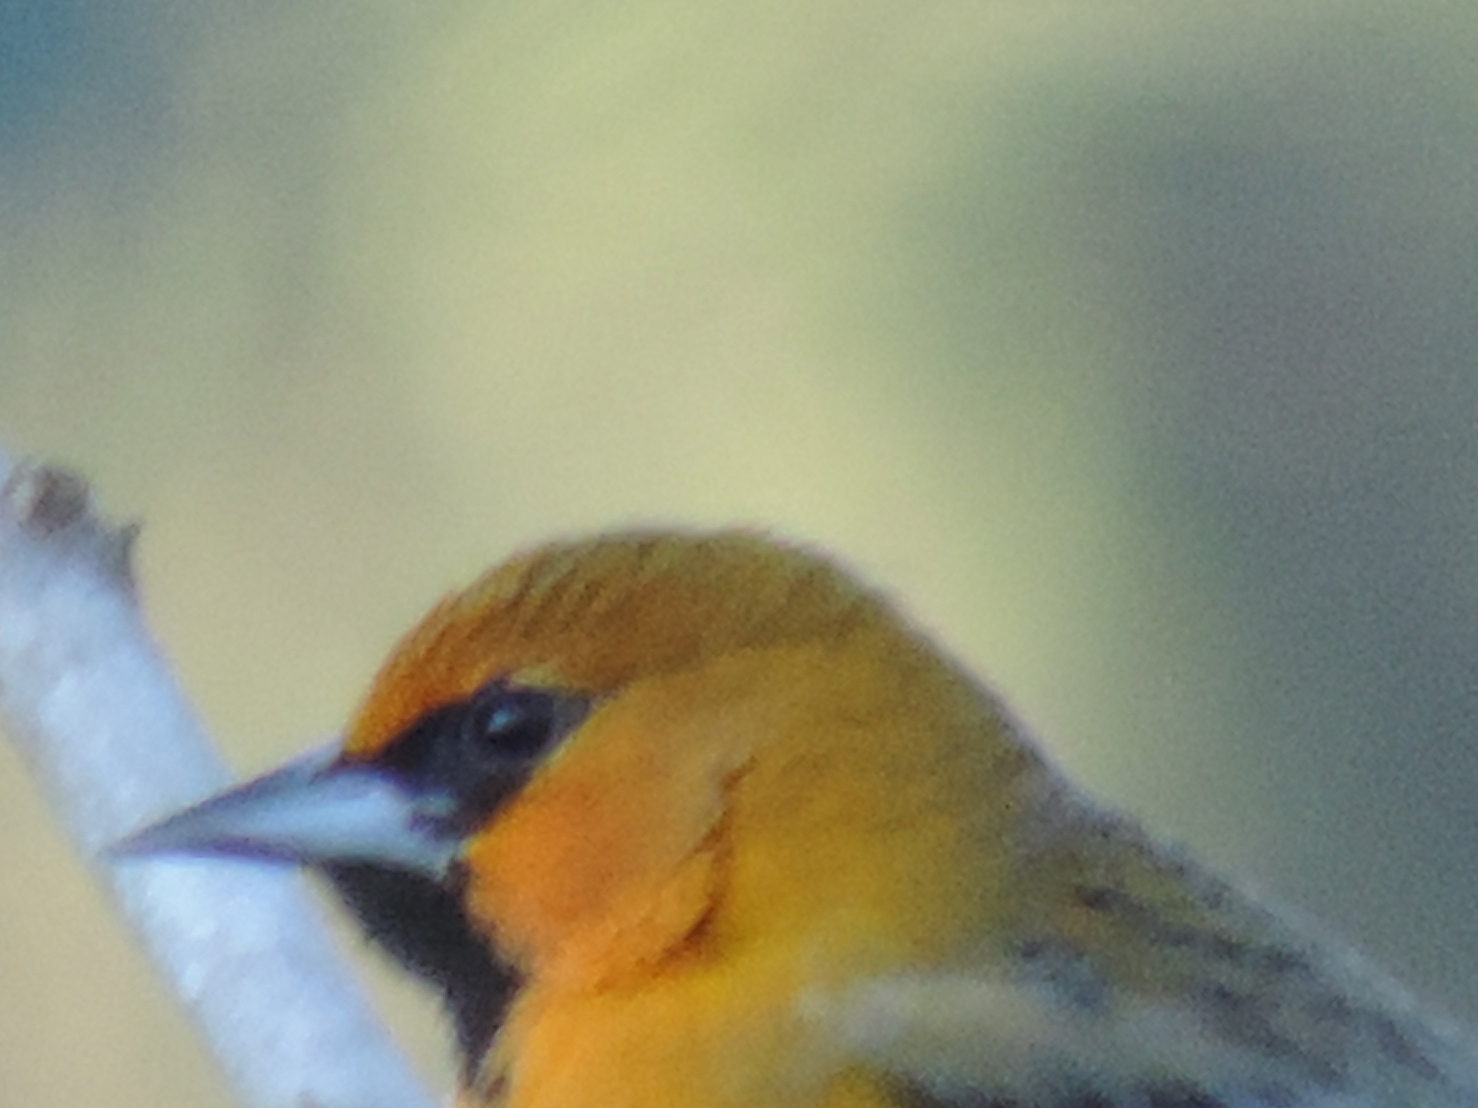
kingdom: Animalia
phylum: Chordata
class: Aves
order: Passeriformes
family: Icteridae
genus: Icterus
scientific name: Icterus pustulatus
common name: Streak-backed oriole
